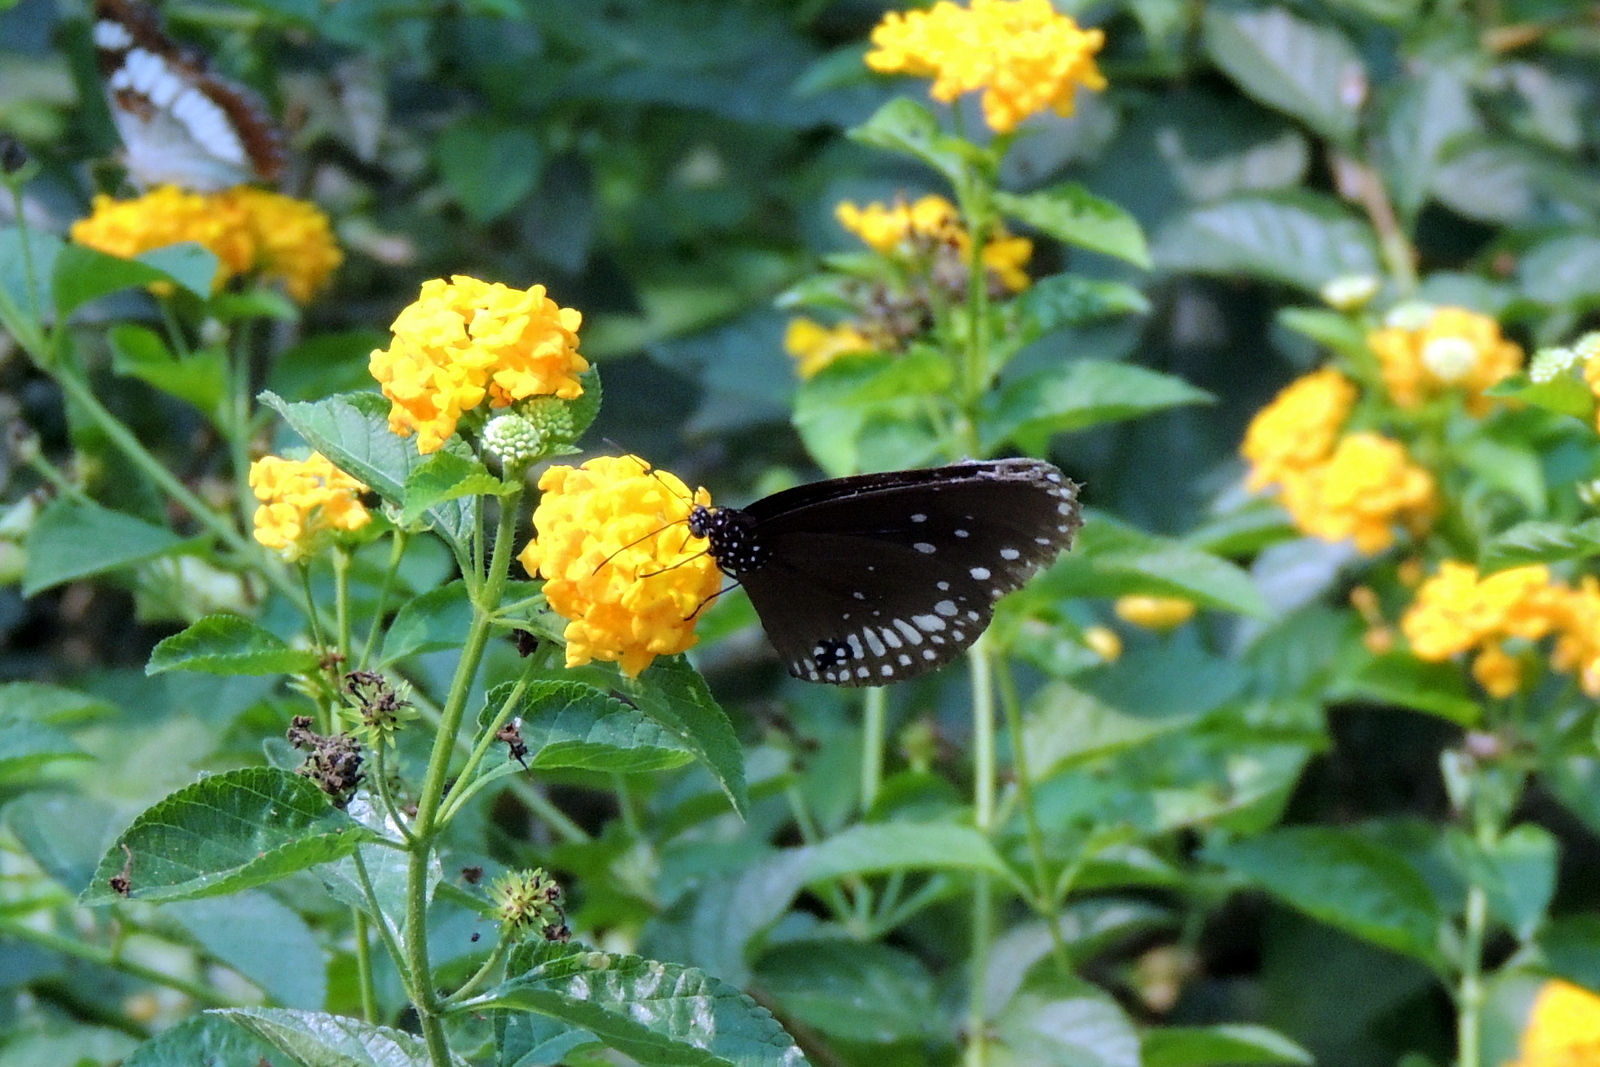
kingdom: Animalia
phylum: Arthropoda
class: Insecta
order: Lepidoptera
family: Nymphalidae
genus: Euploea
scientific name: Euploea core
